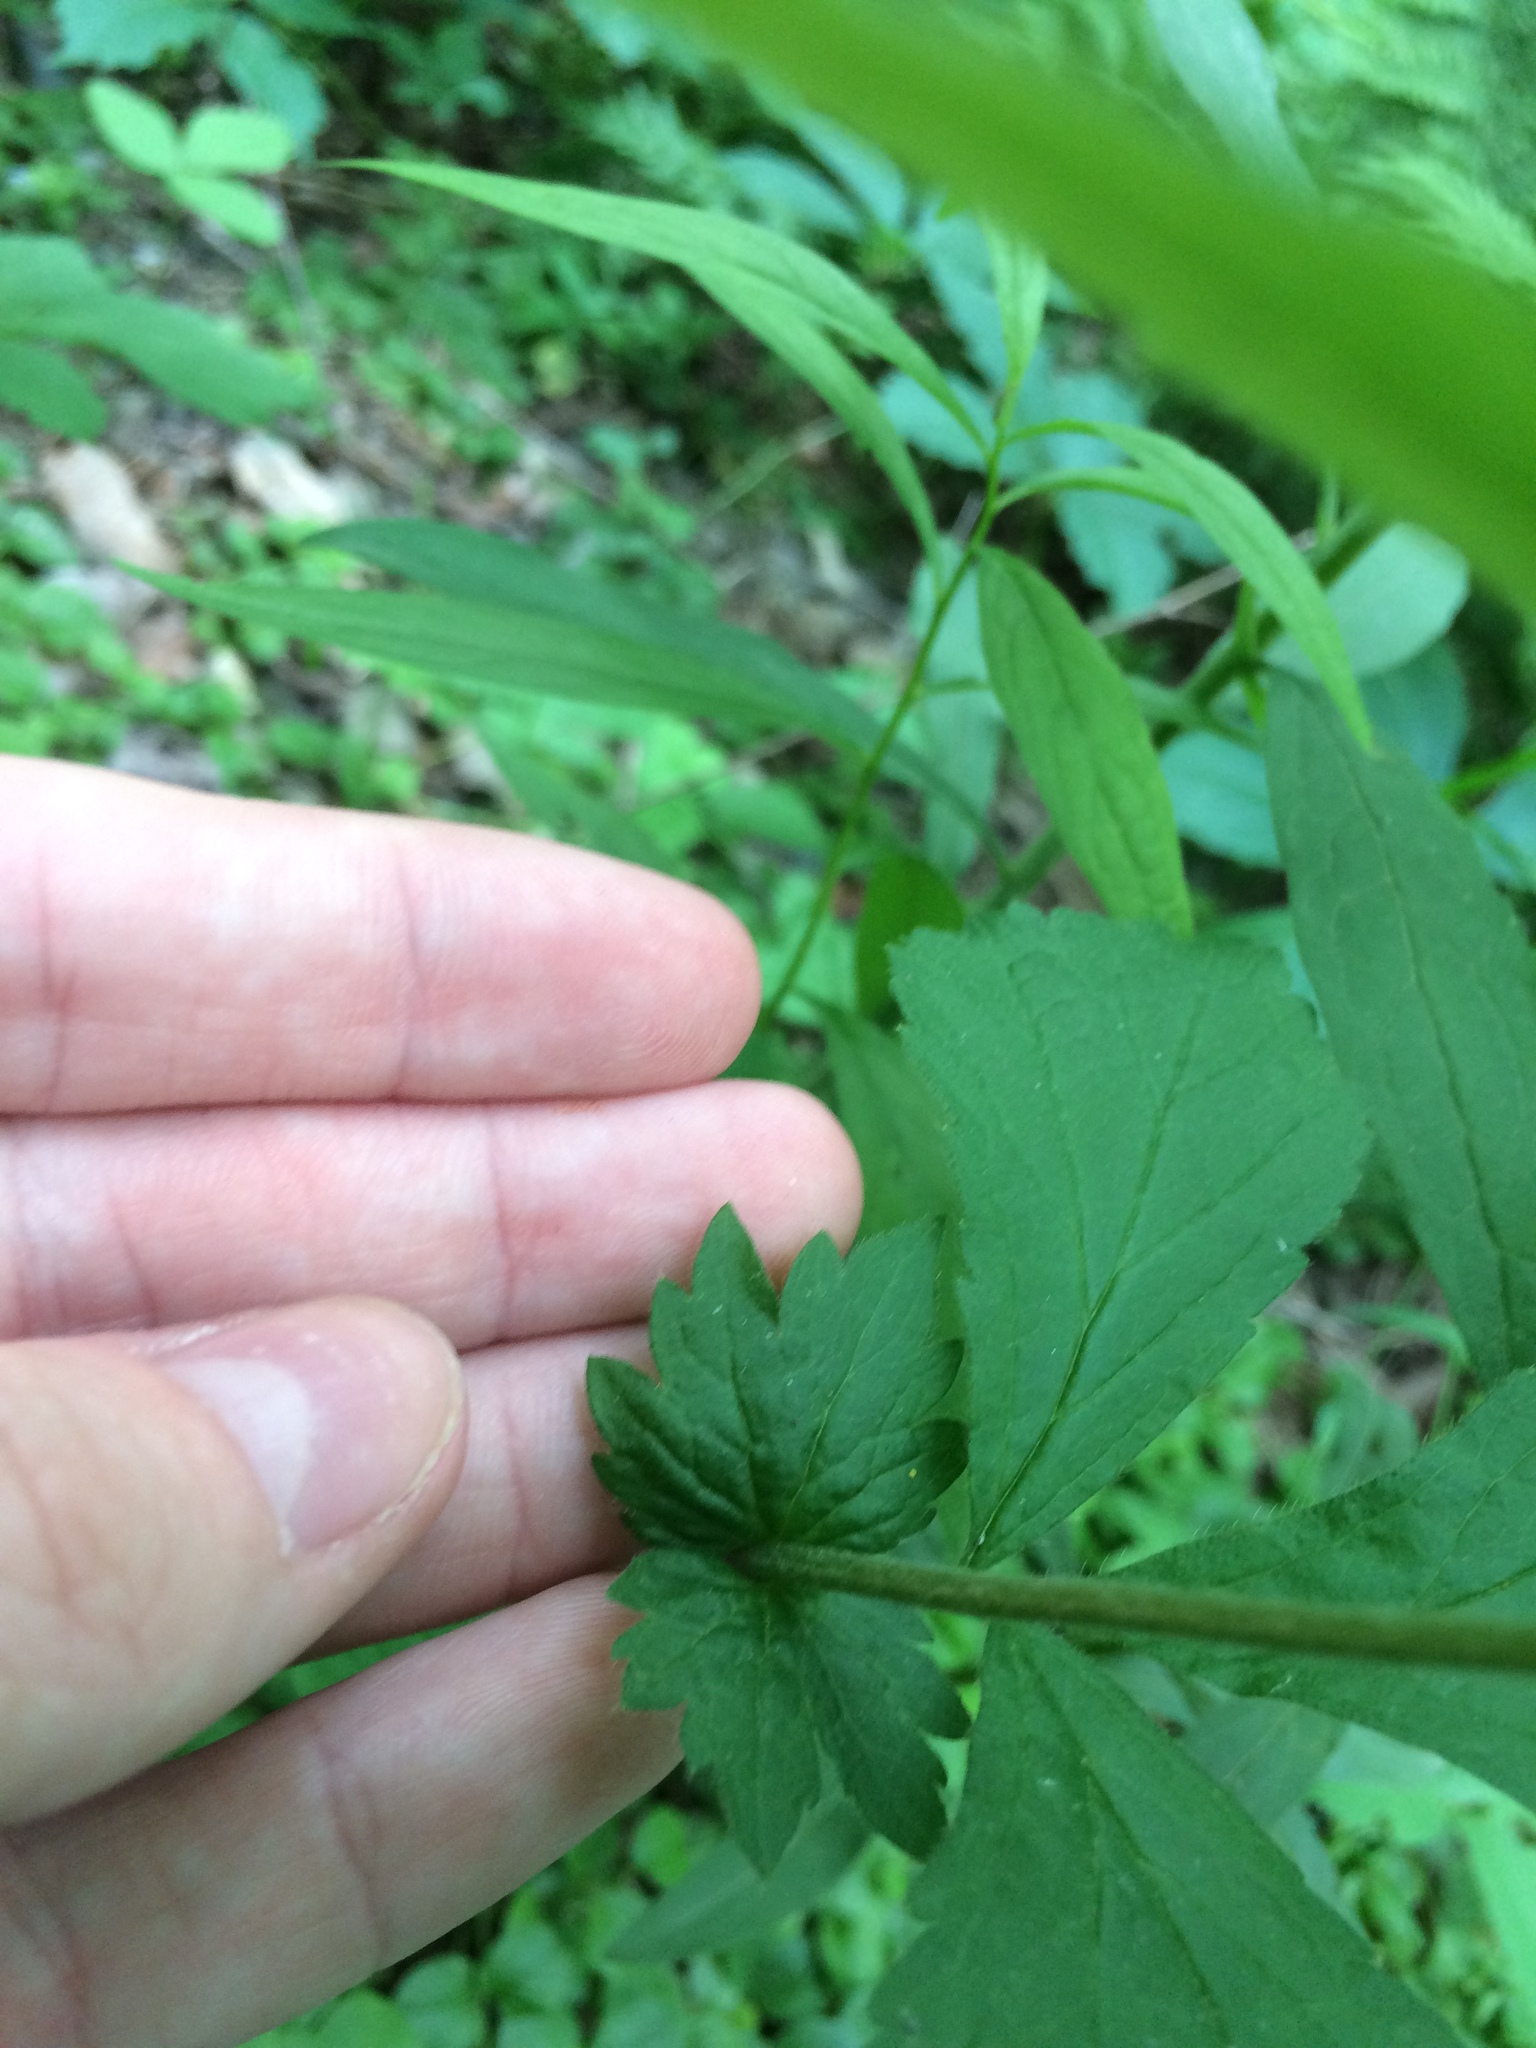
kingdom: Plantae
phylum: Tracheophyta
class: Magnoliopsida
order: Rosales
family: Rosaceae
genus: Geum
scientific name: Geum catlingii
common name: Catling's avens
